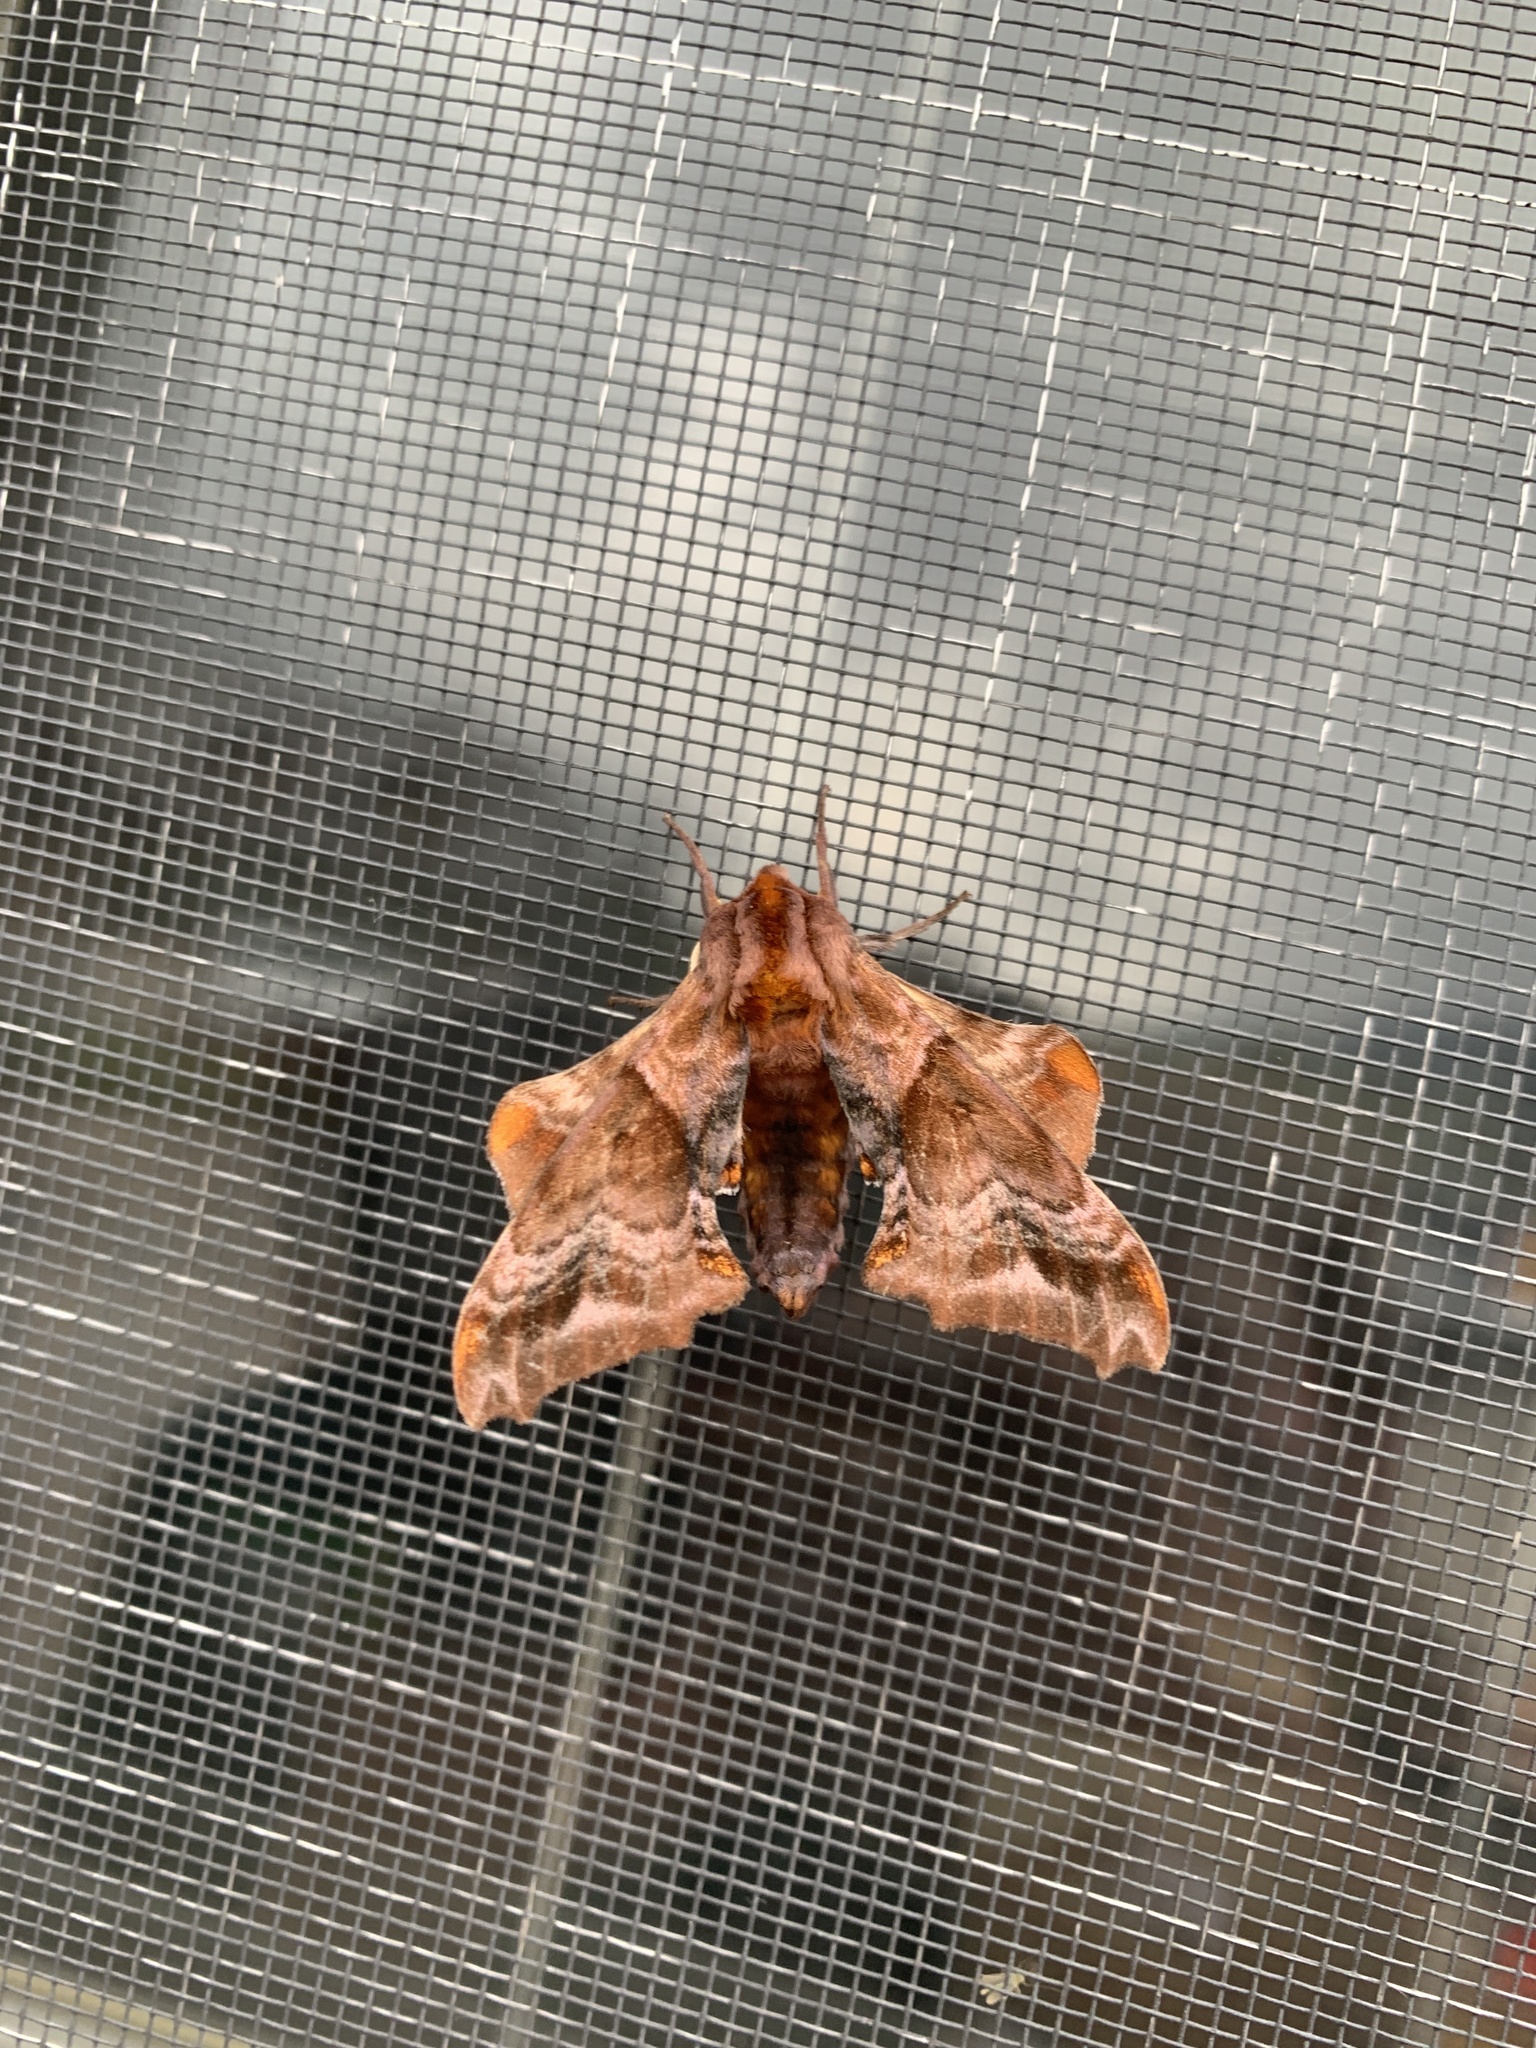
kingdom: Animalia
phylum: Arthropoda
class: Insecta
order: Lepidoptera
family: Sphingidae
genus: Paonias
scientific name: Paonias myops
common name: Small-eyed sphinx
